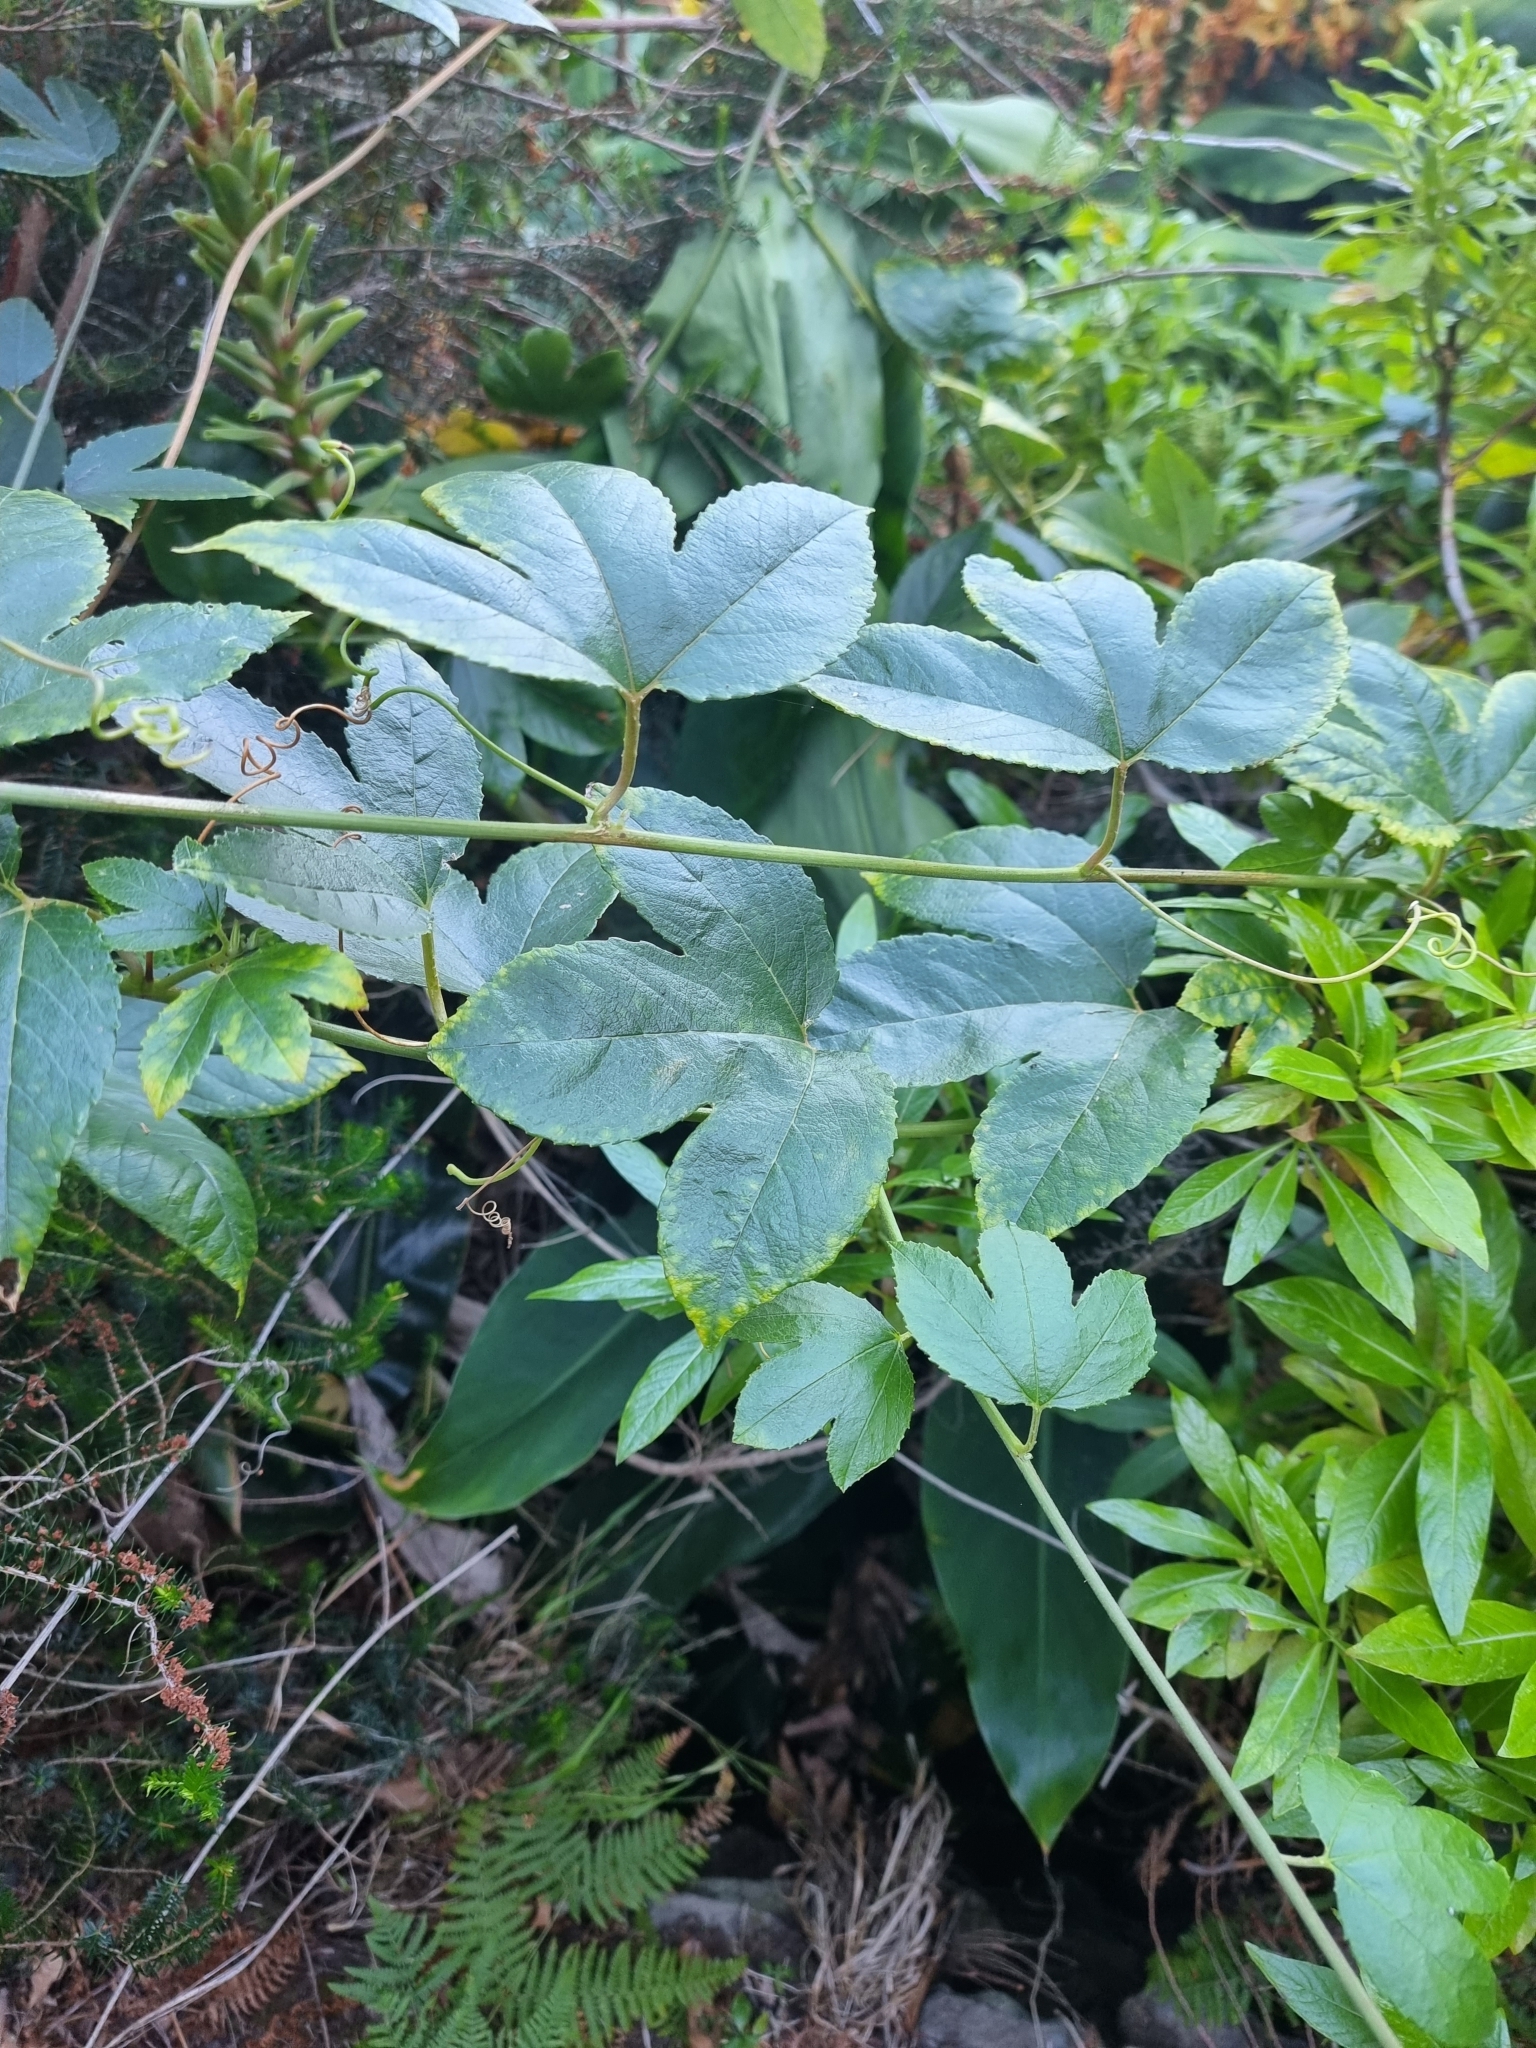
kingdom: Plantae
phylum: Tracheophyta
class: Magnoliopsida
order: Malpighiales
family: Passifloraceae
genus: Passiflora
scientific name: Passiflora tarminiana
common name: Banana poka
